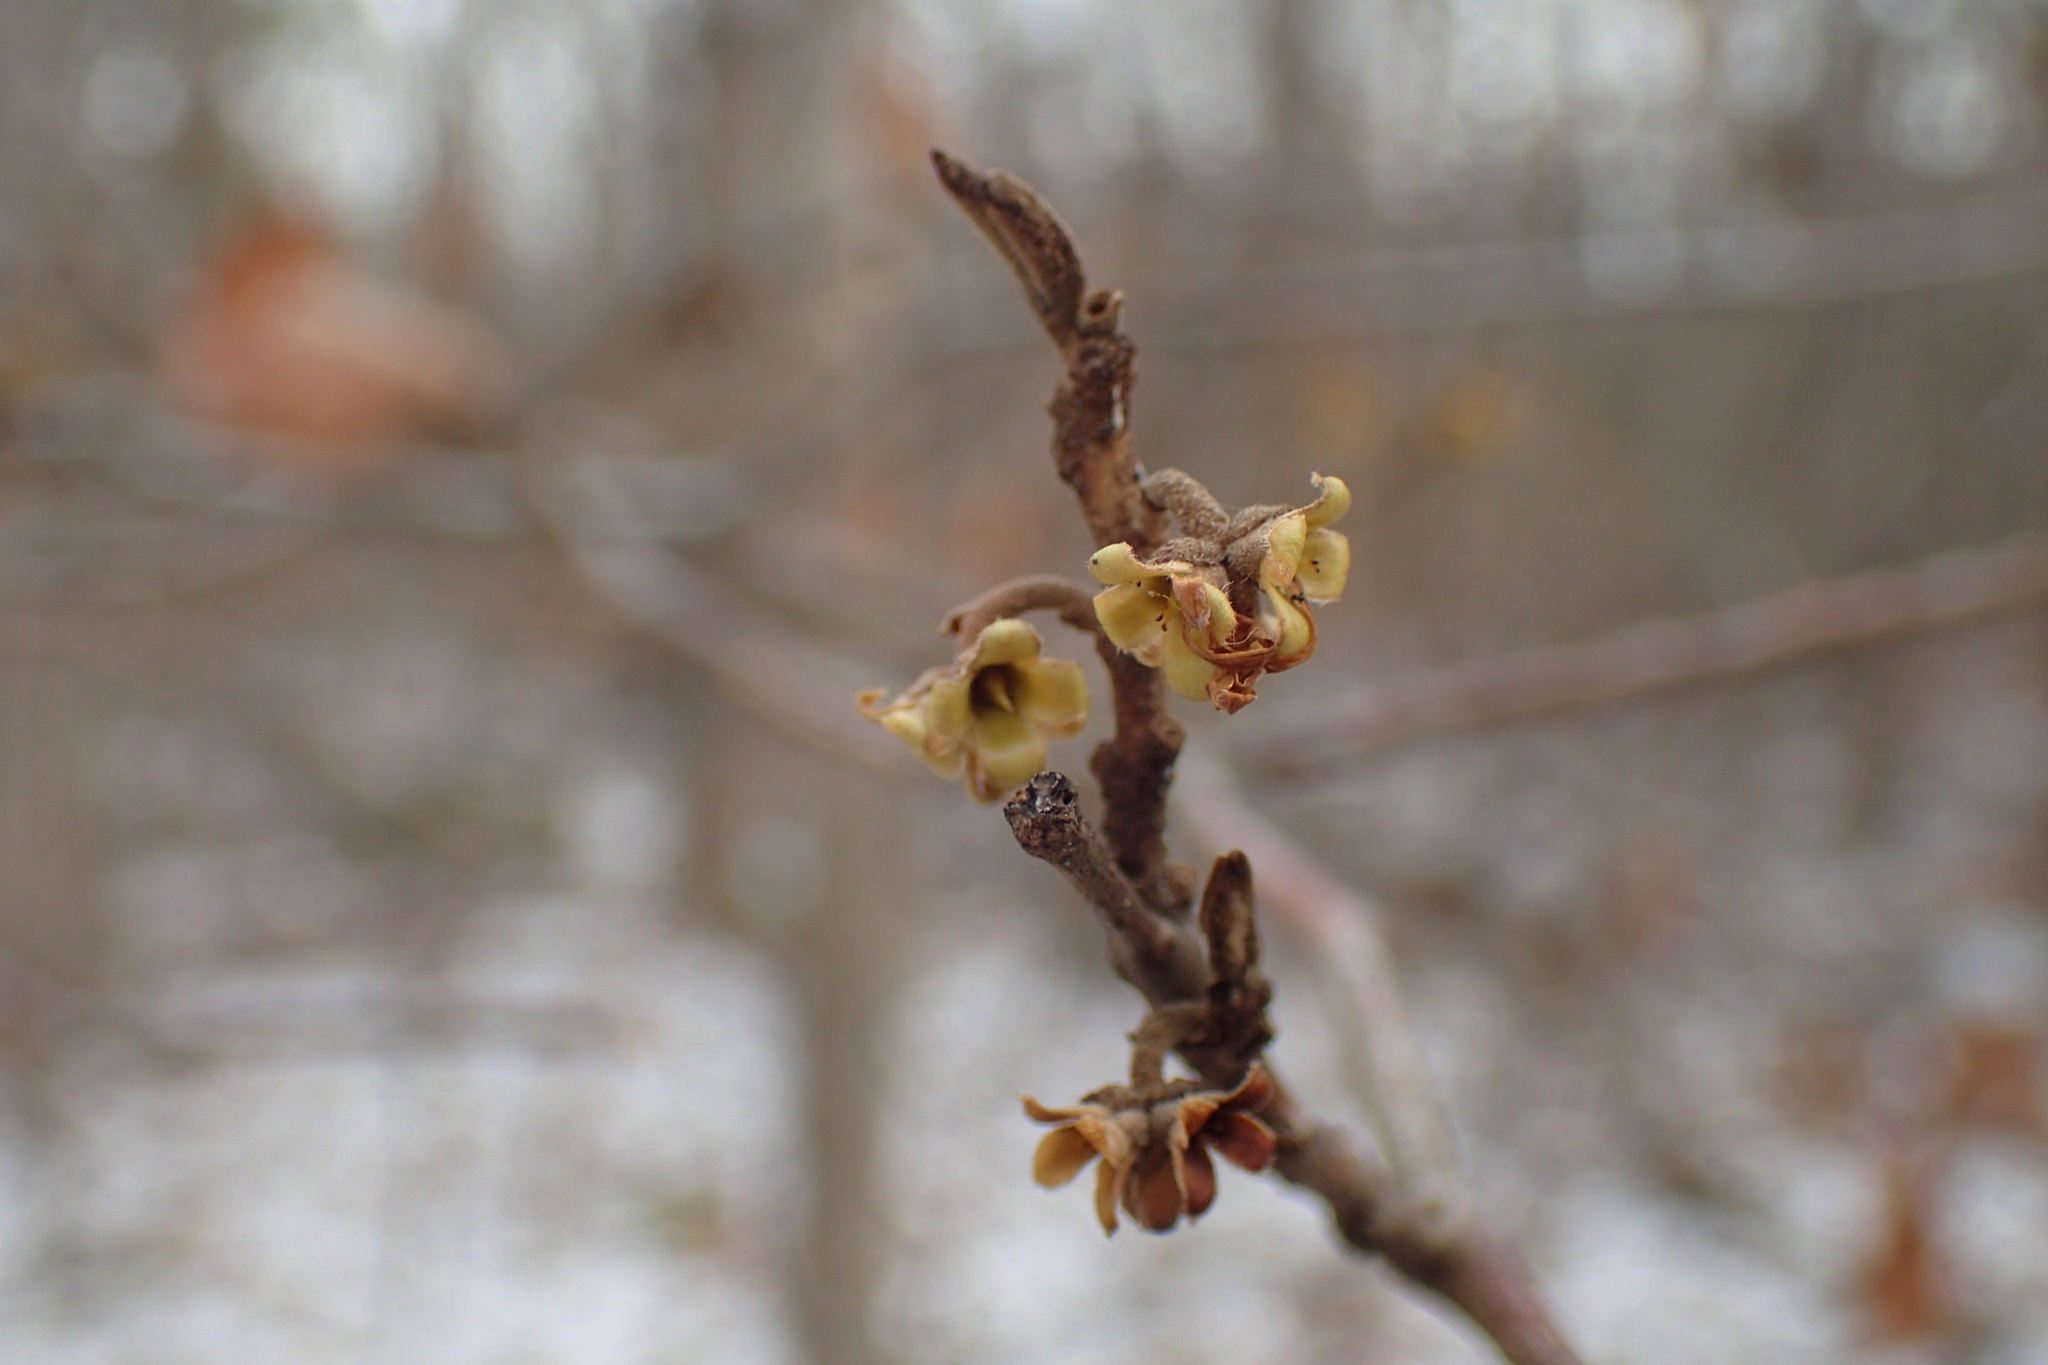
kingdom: Plantae
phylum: Tracheophyta
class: Magnoliopsida
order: Saxifragales
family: Hamamelidaceae
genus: Hamamelis
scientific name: Hamamelis virginiana
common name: Witch-hazel
